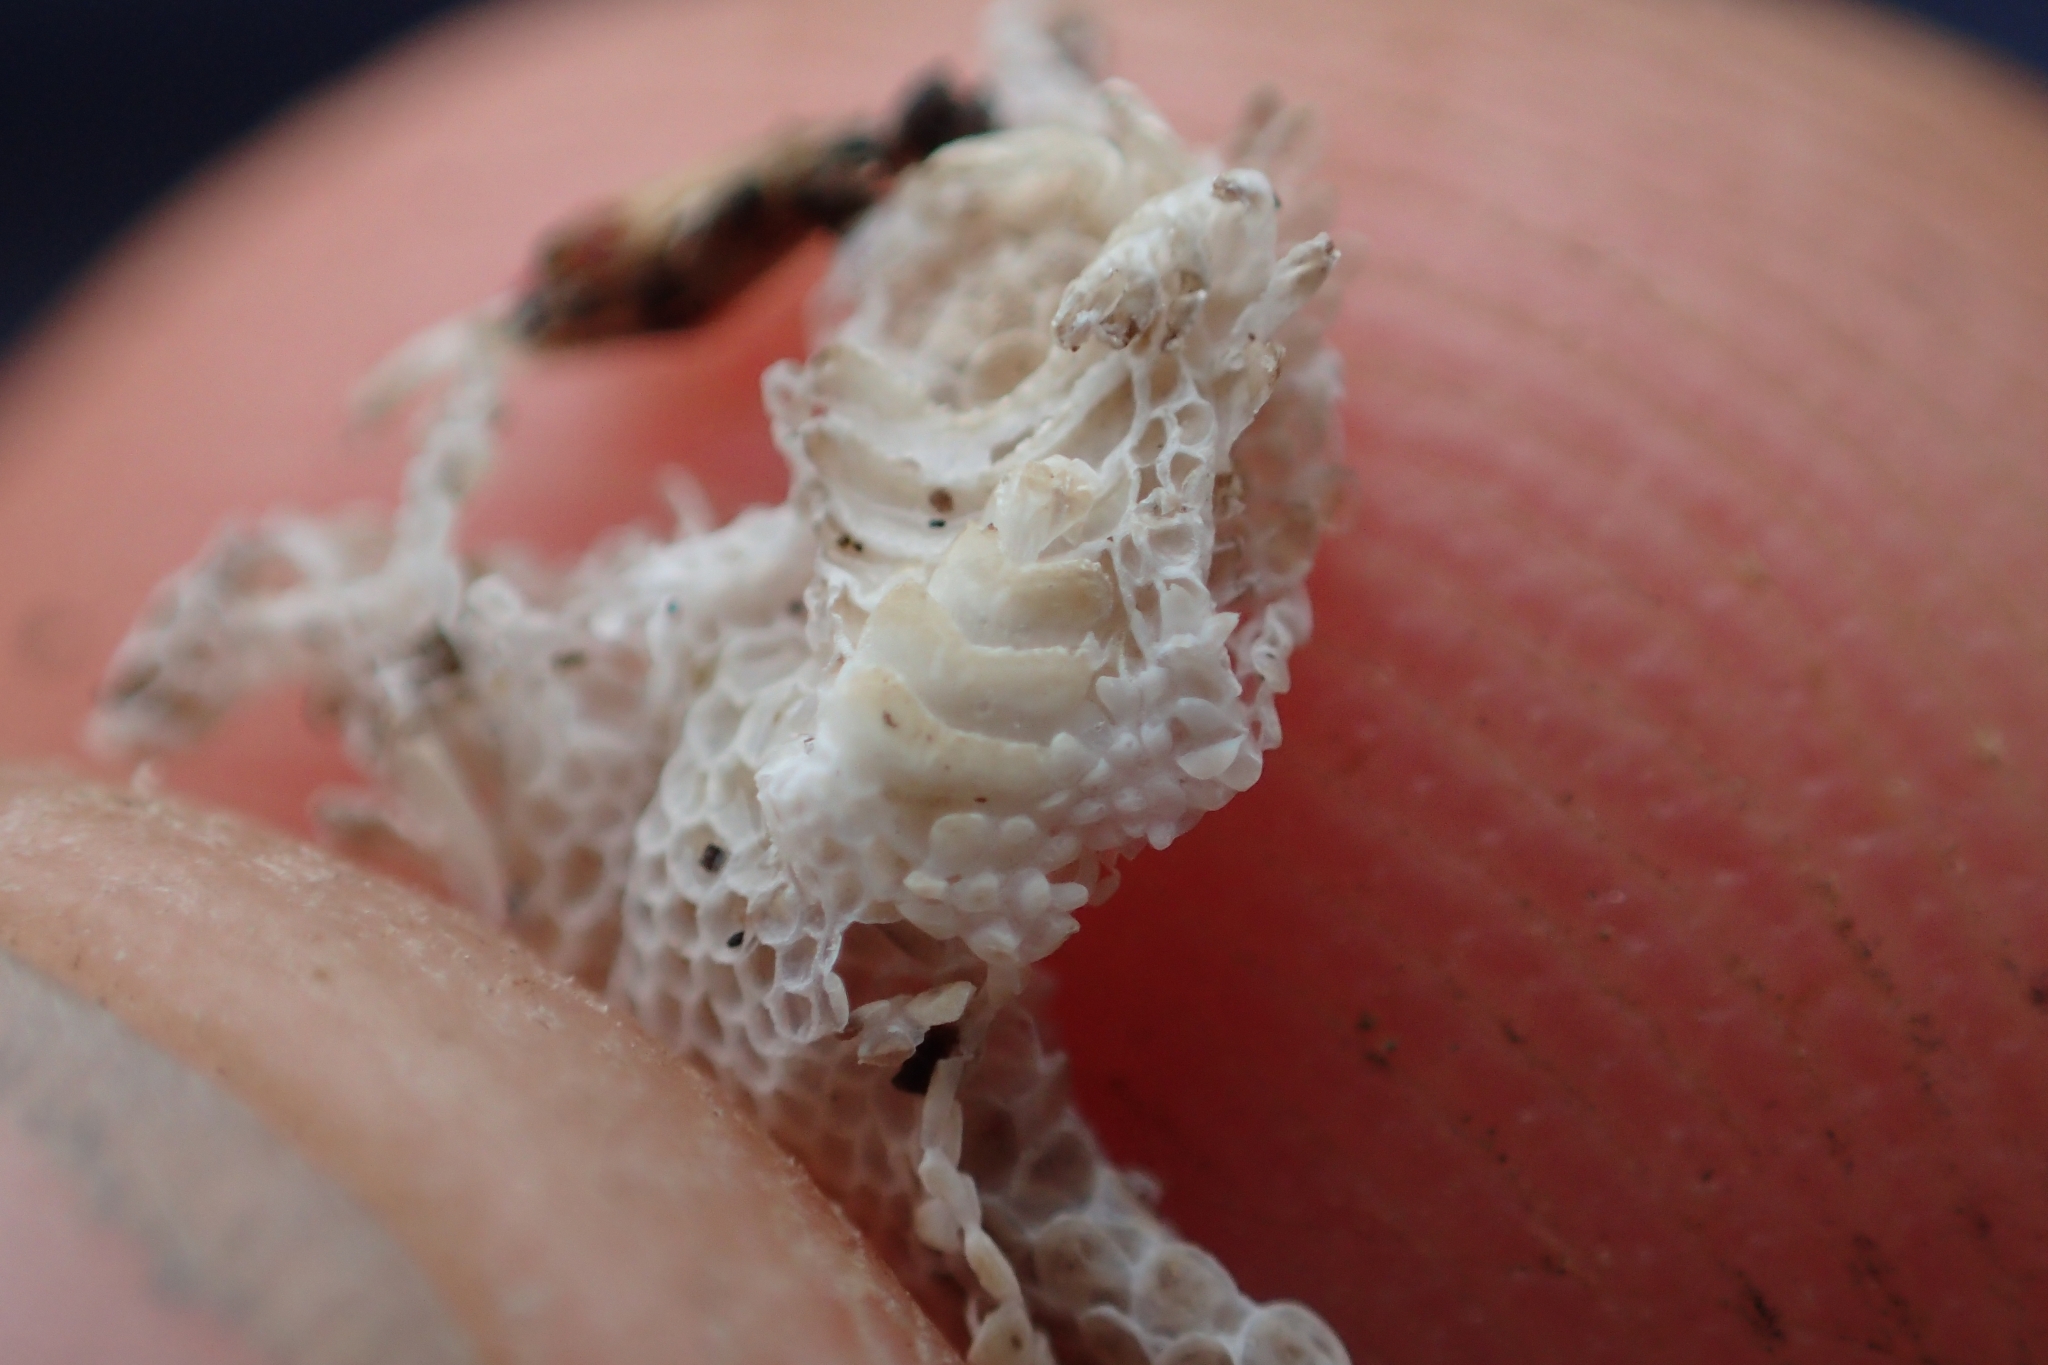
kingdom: Animalia
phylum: Chordata
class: Squamata
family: Diplodactylidae
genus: Woodworthia
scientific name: Woodworthia
